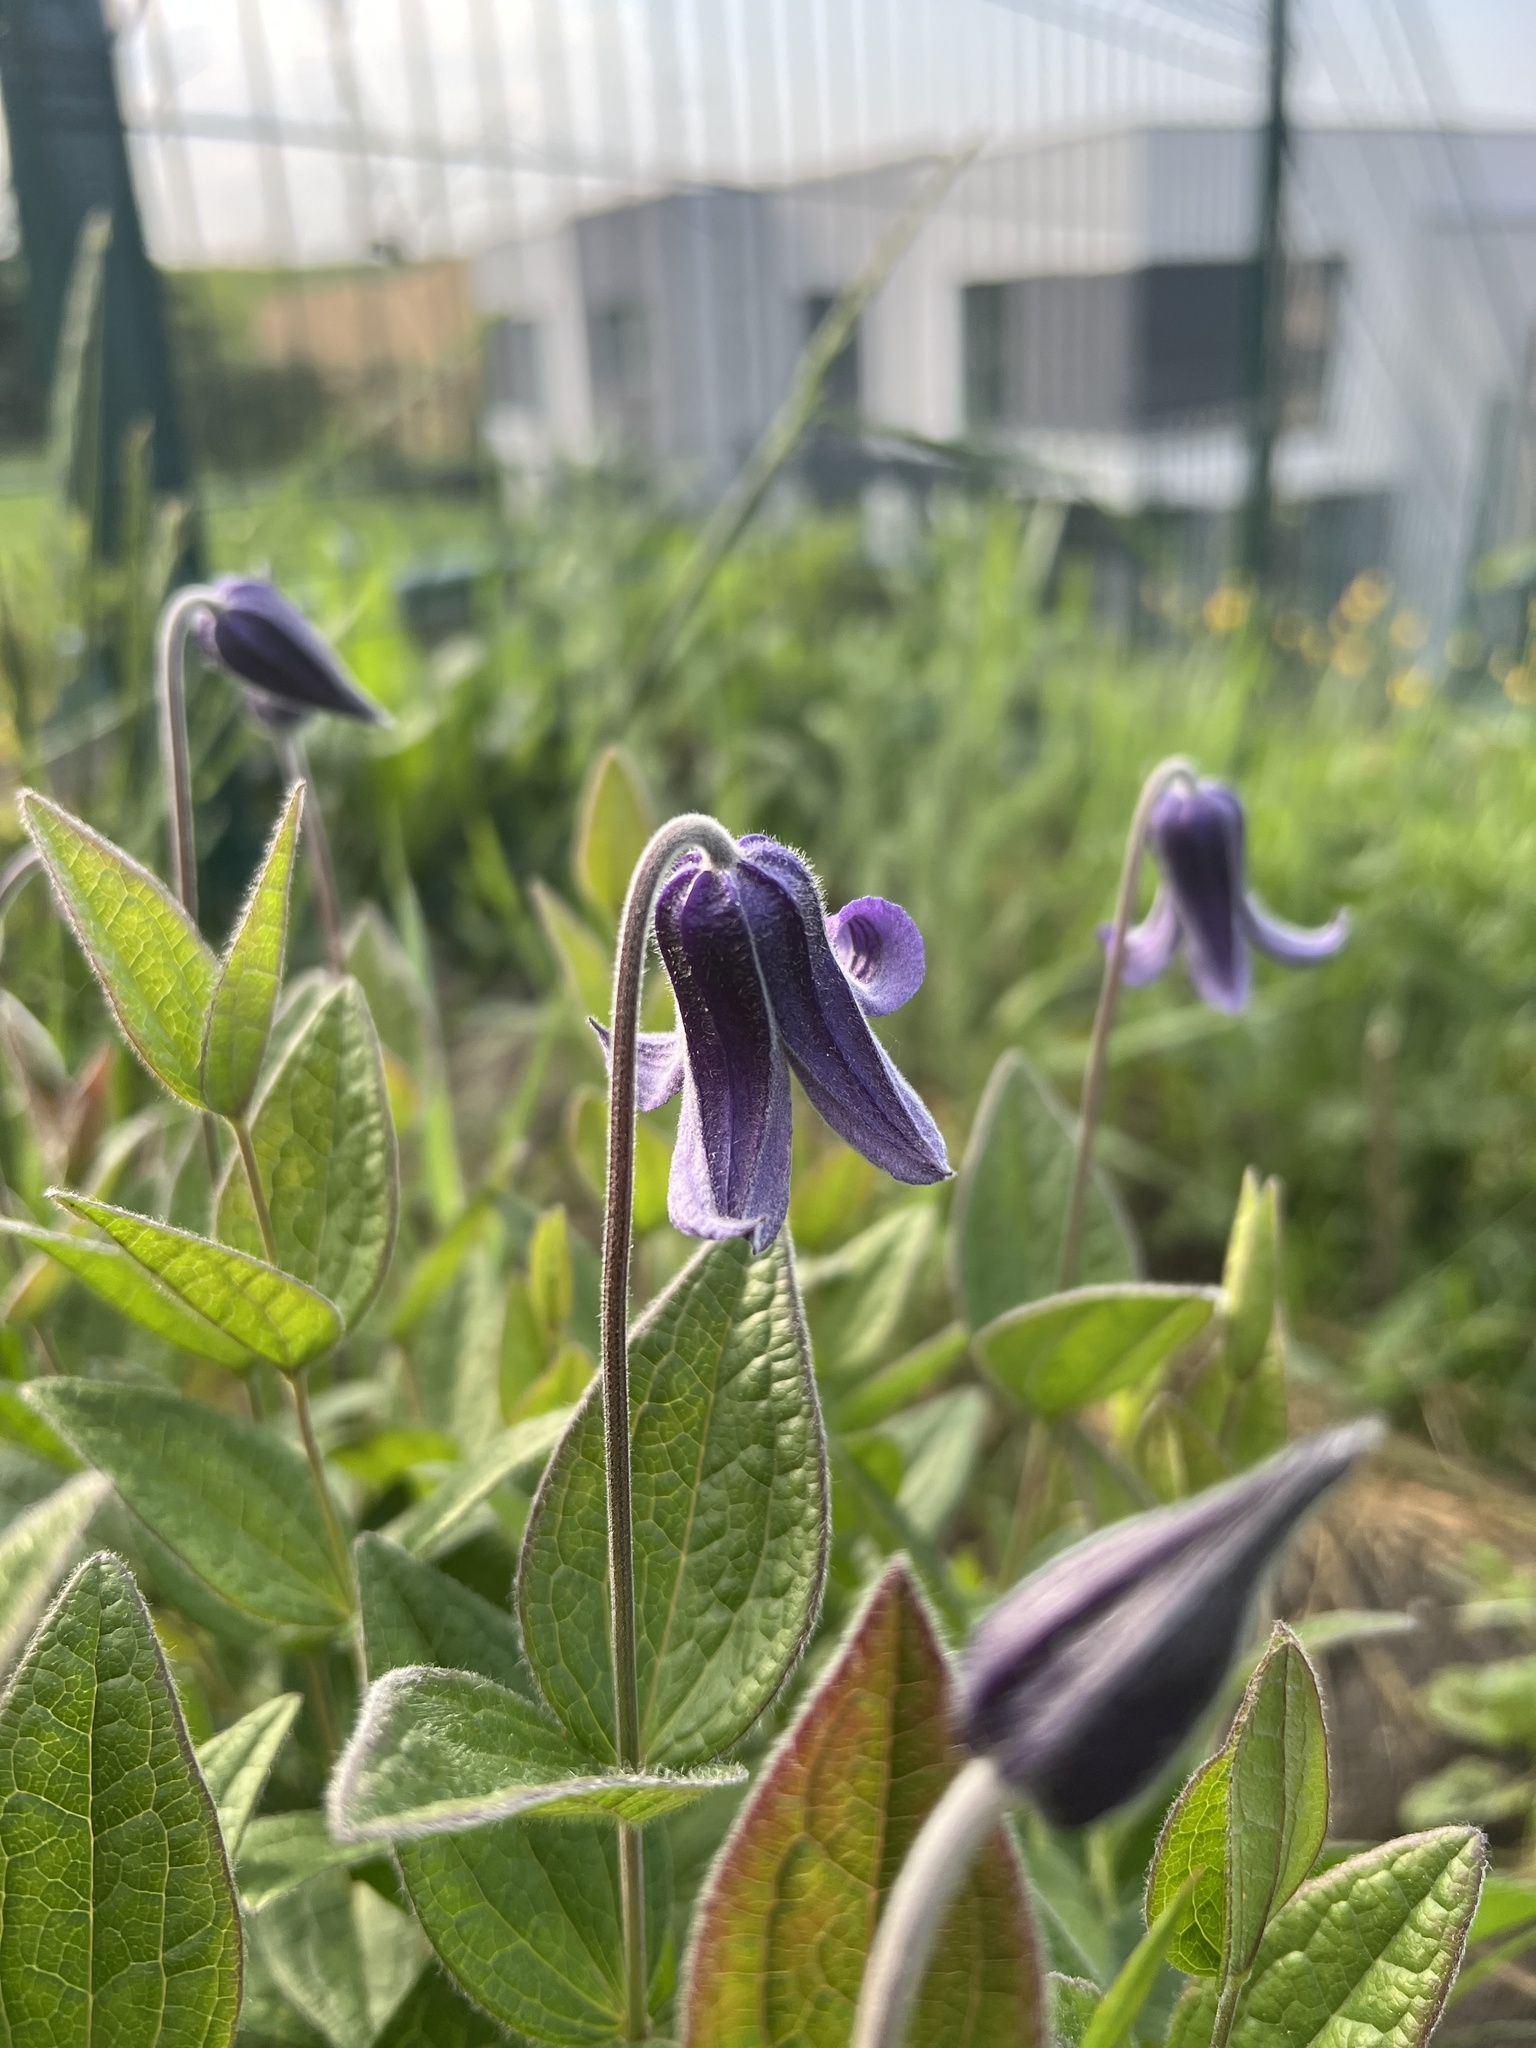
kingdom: Plantae
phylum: Tracheophyta
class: Magnoliopsida
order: Ranunculales
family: Ranunculaceae
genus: Clematis
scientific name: Clematis integrifolia
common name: Solitary clematis
